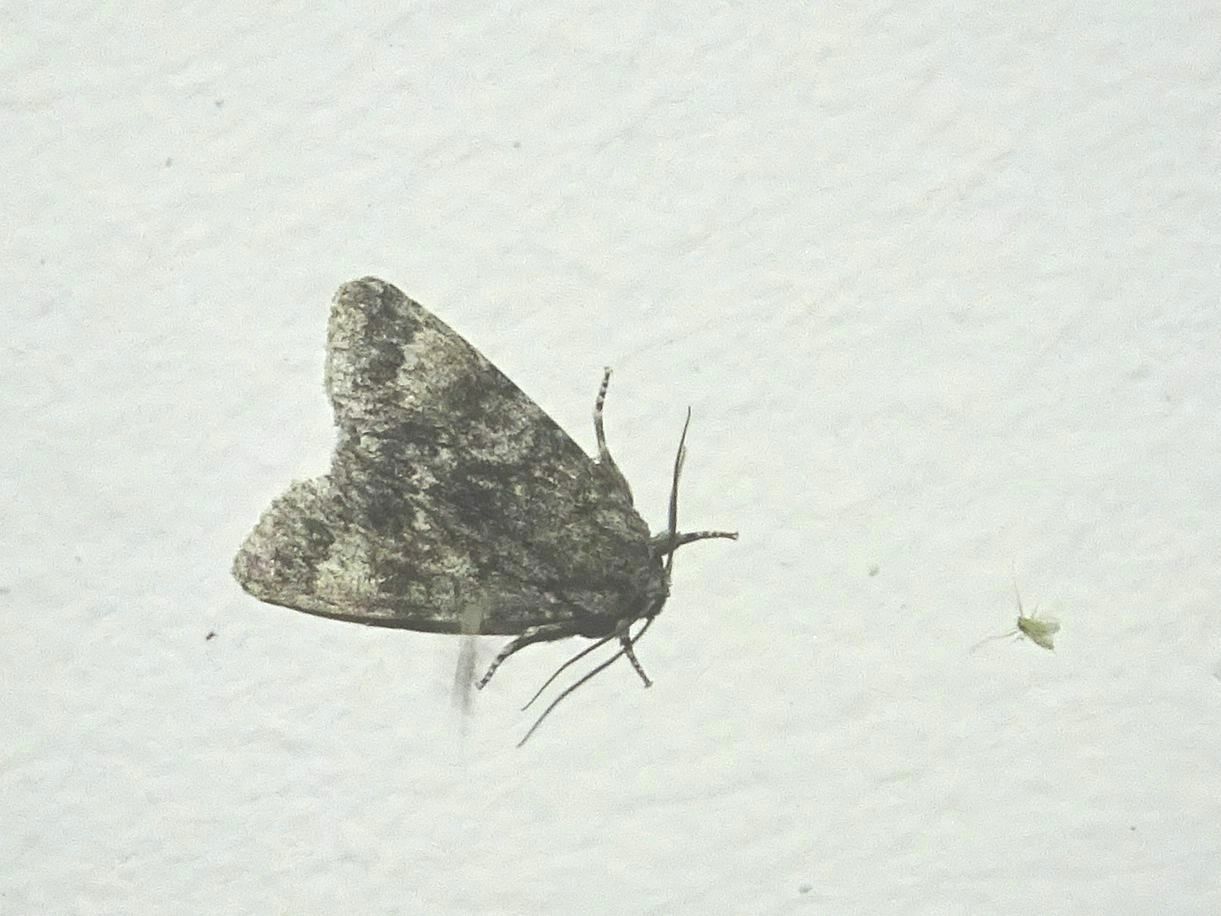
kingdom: Animalia
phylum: Arthropoda
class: Insecta
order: Lepidoptera
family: Noctuidae
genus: Acronicta
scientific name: Acronicta megacephala
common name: Poplar grey
